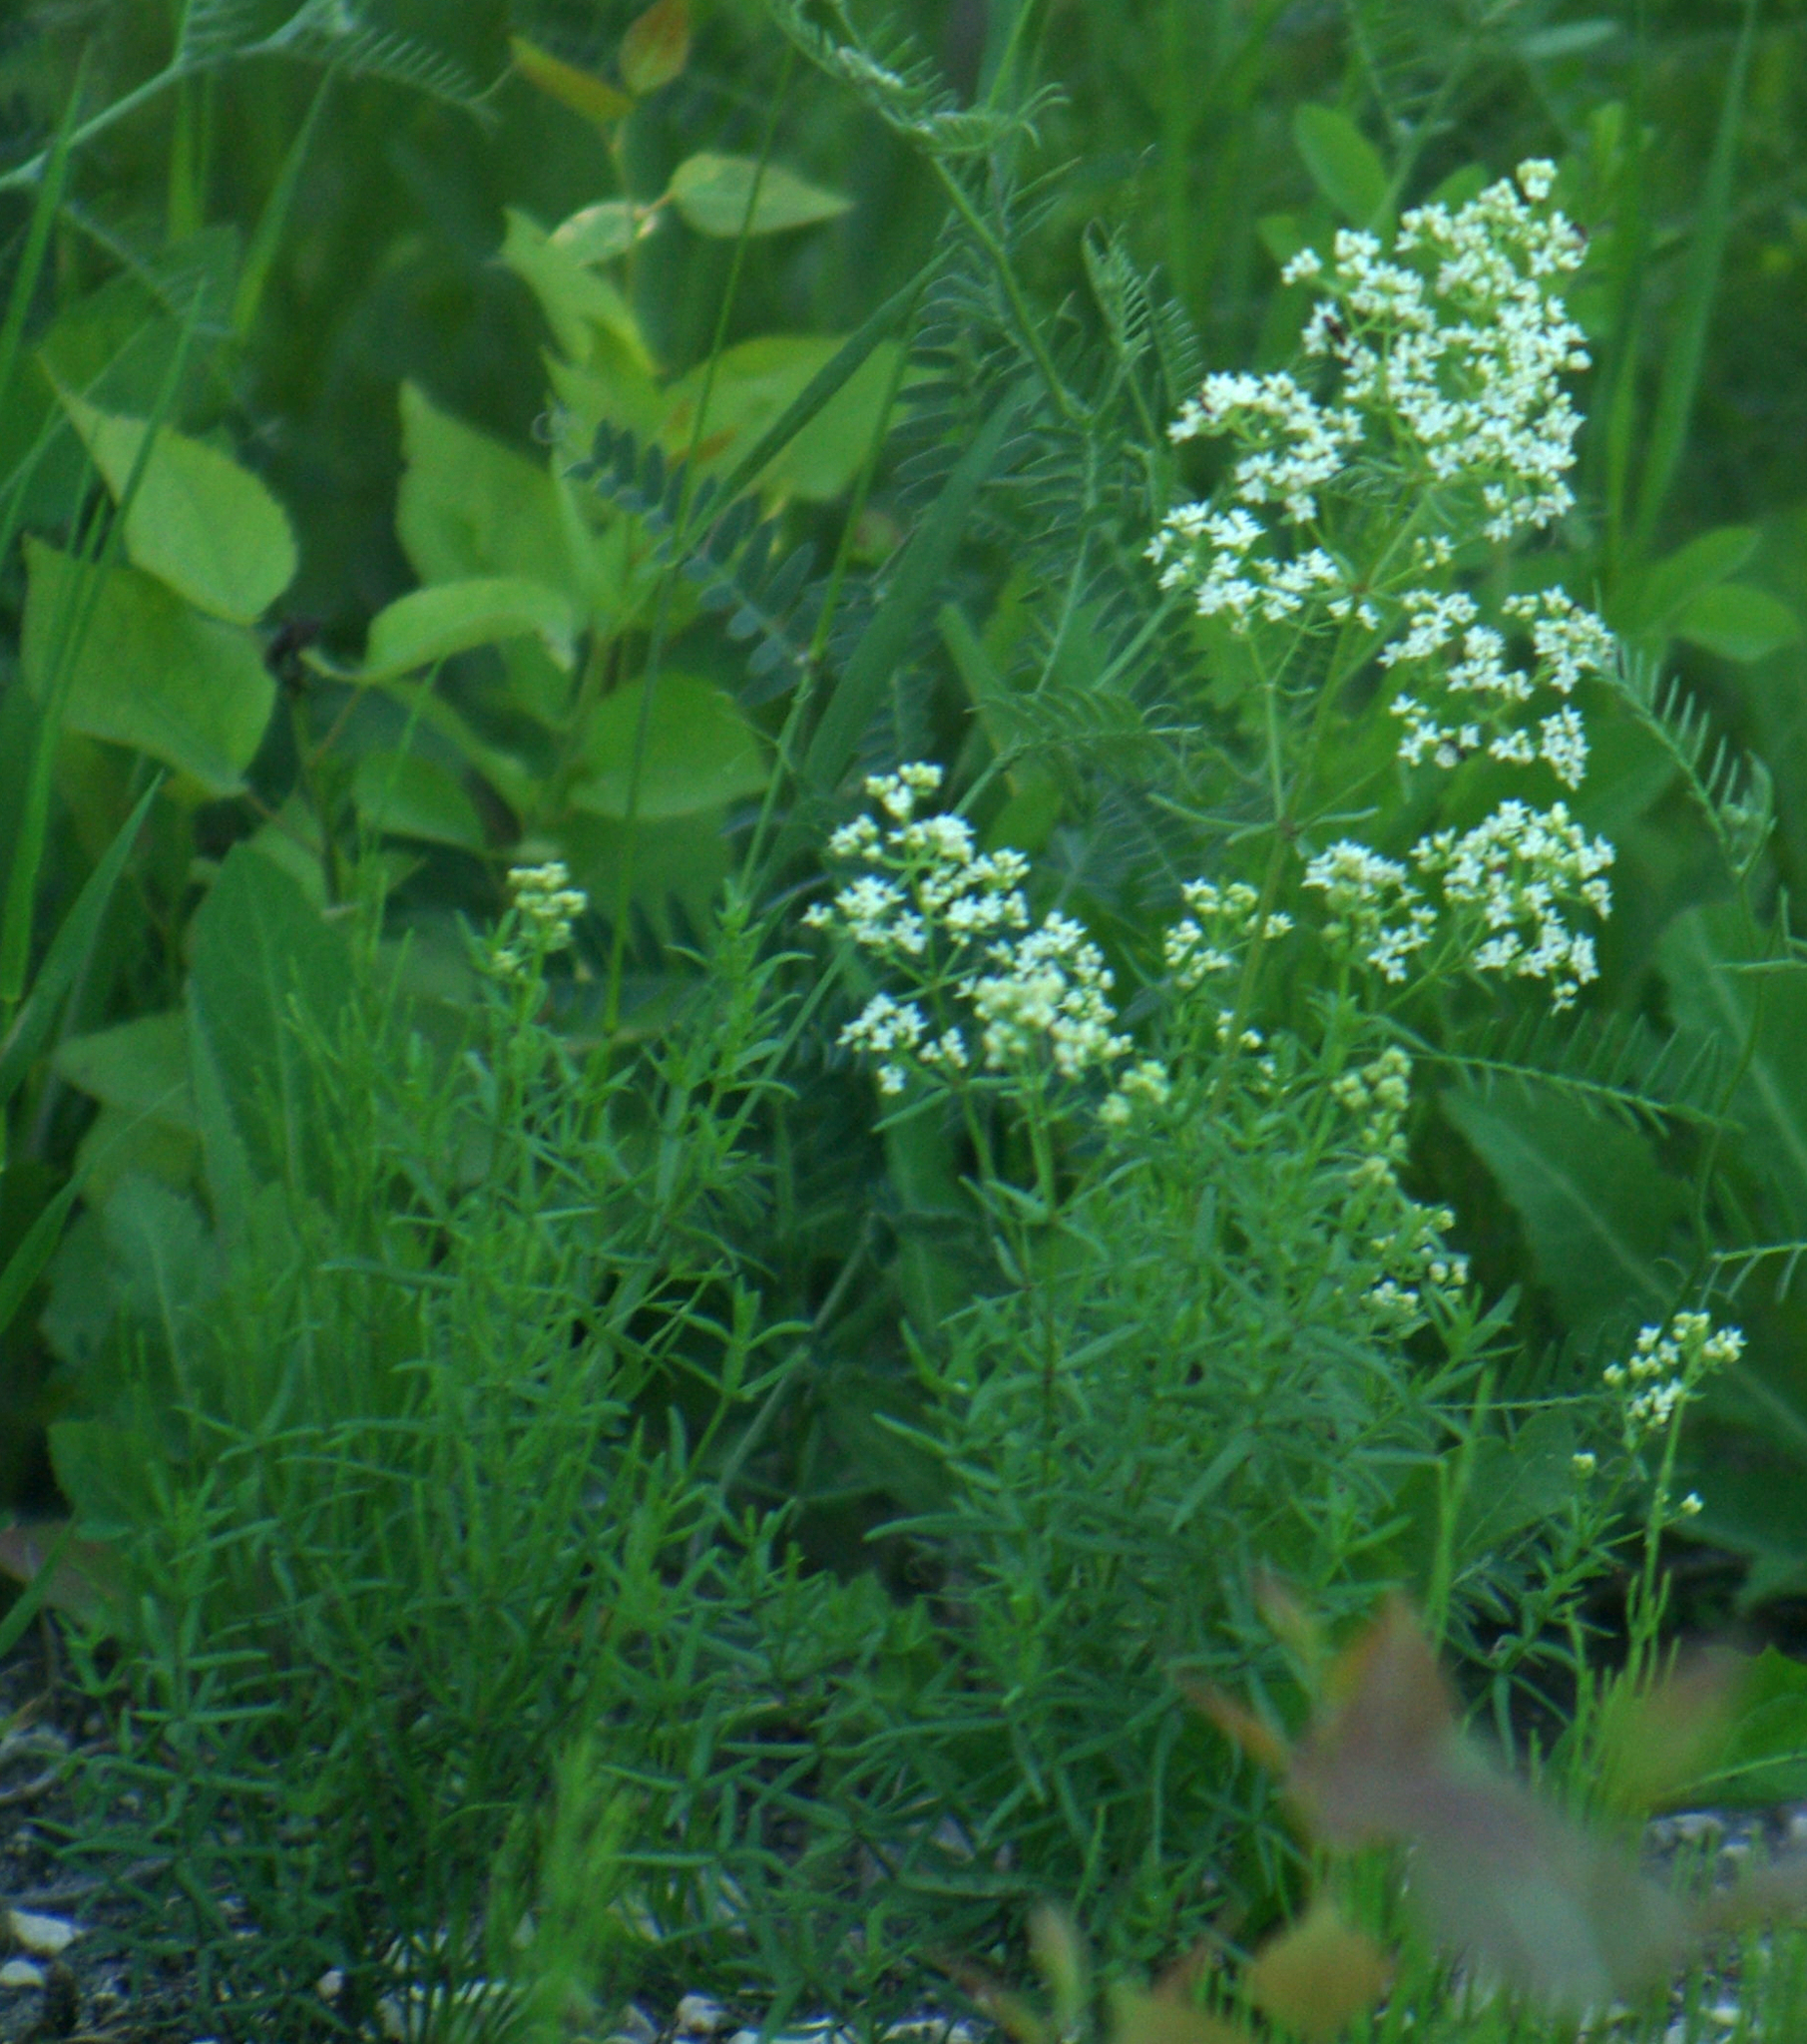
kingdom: Plantae
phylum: Tracheophyta
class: Magnoliopsida
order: Gentianales
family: Rubiaceae
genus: Galium
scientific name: Galium boreale
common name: Northern bedstraw
